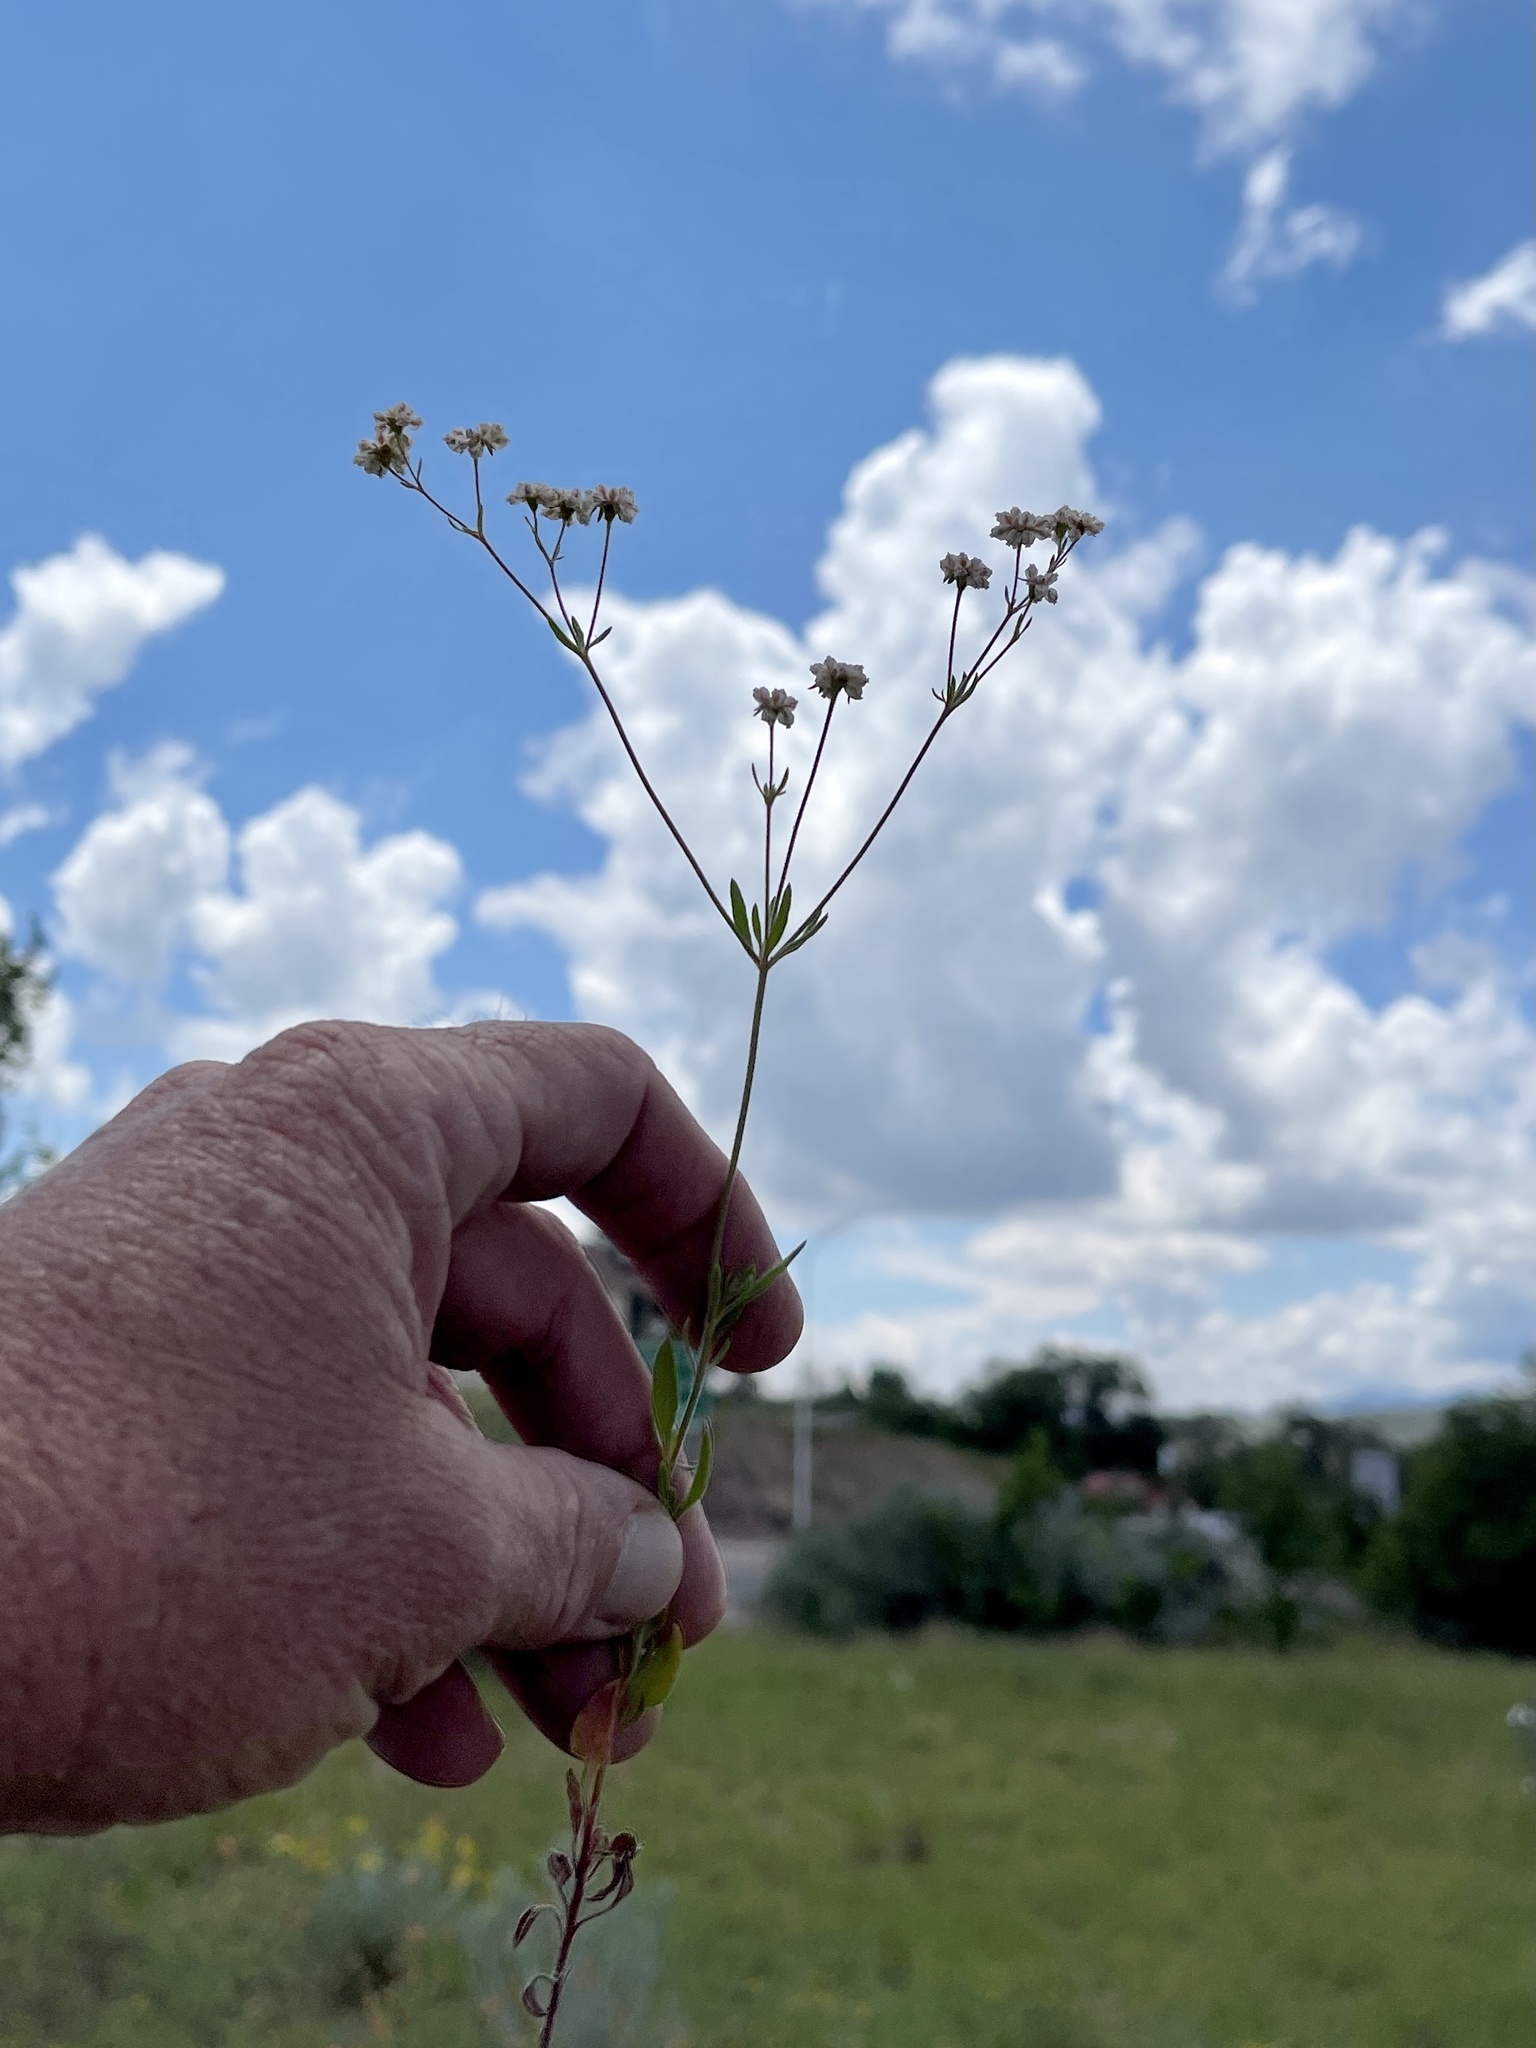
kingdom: Plantae
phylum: Tracheophyta
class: Magnoliopsida
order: Caryophyllales
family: Polygonaceae
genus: Eriogonum
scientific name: Eriogonum abertianum
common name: Abert's wild buckwheat
